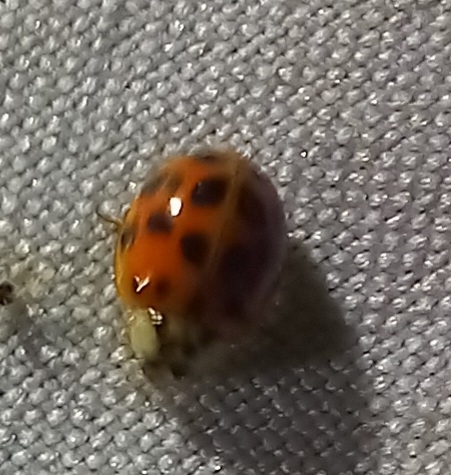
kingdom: Animalia
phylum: Arthropoda
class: Insecta
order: Coleoptera
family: Coccinellidae
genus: Harmonia
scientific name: Harmonia axyridis
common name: Harlequin ladybird
